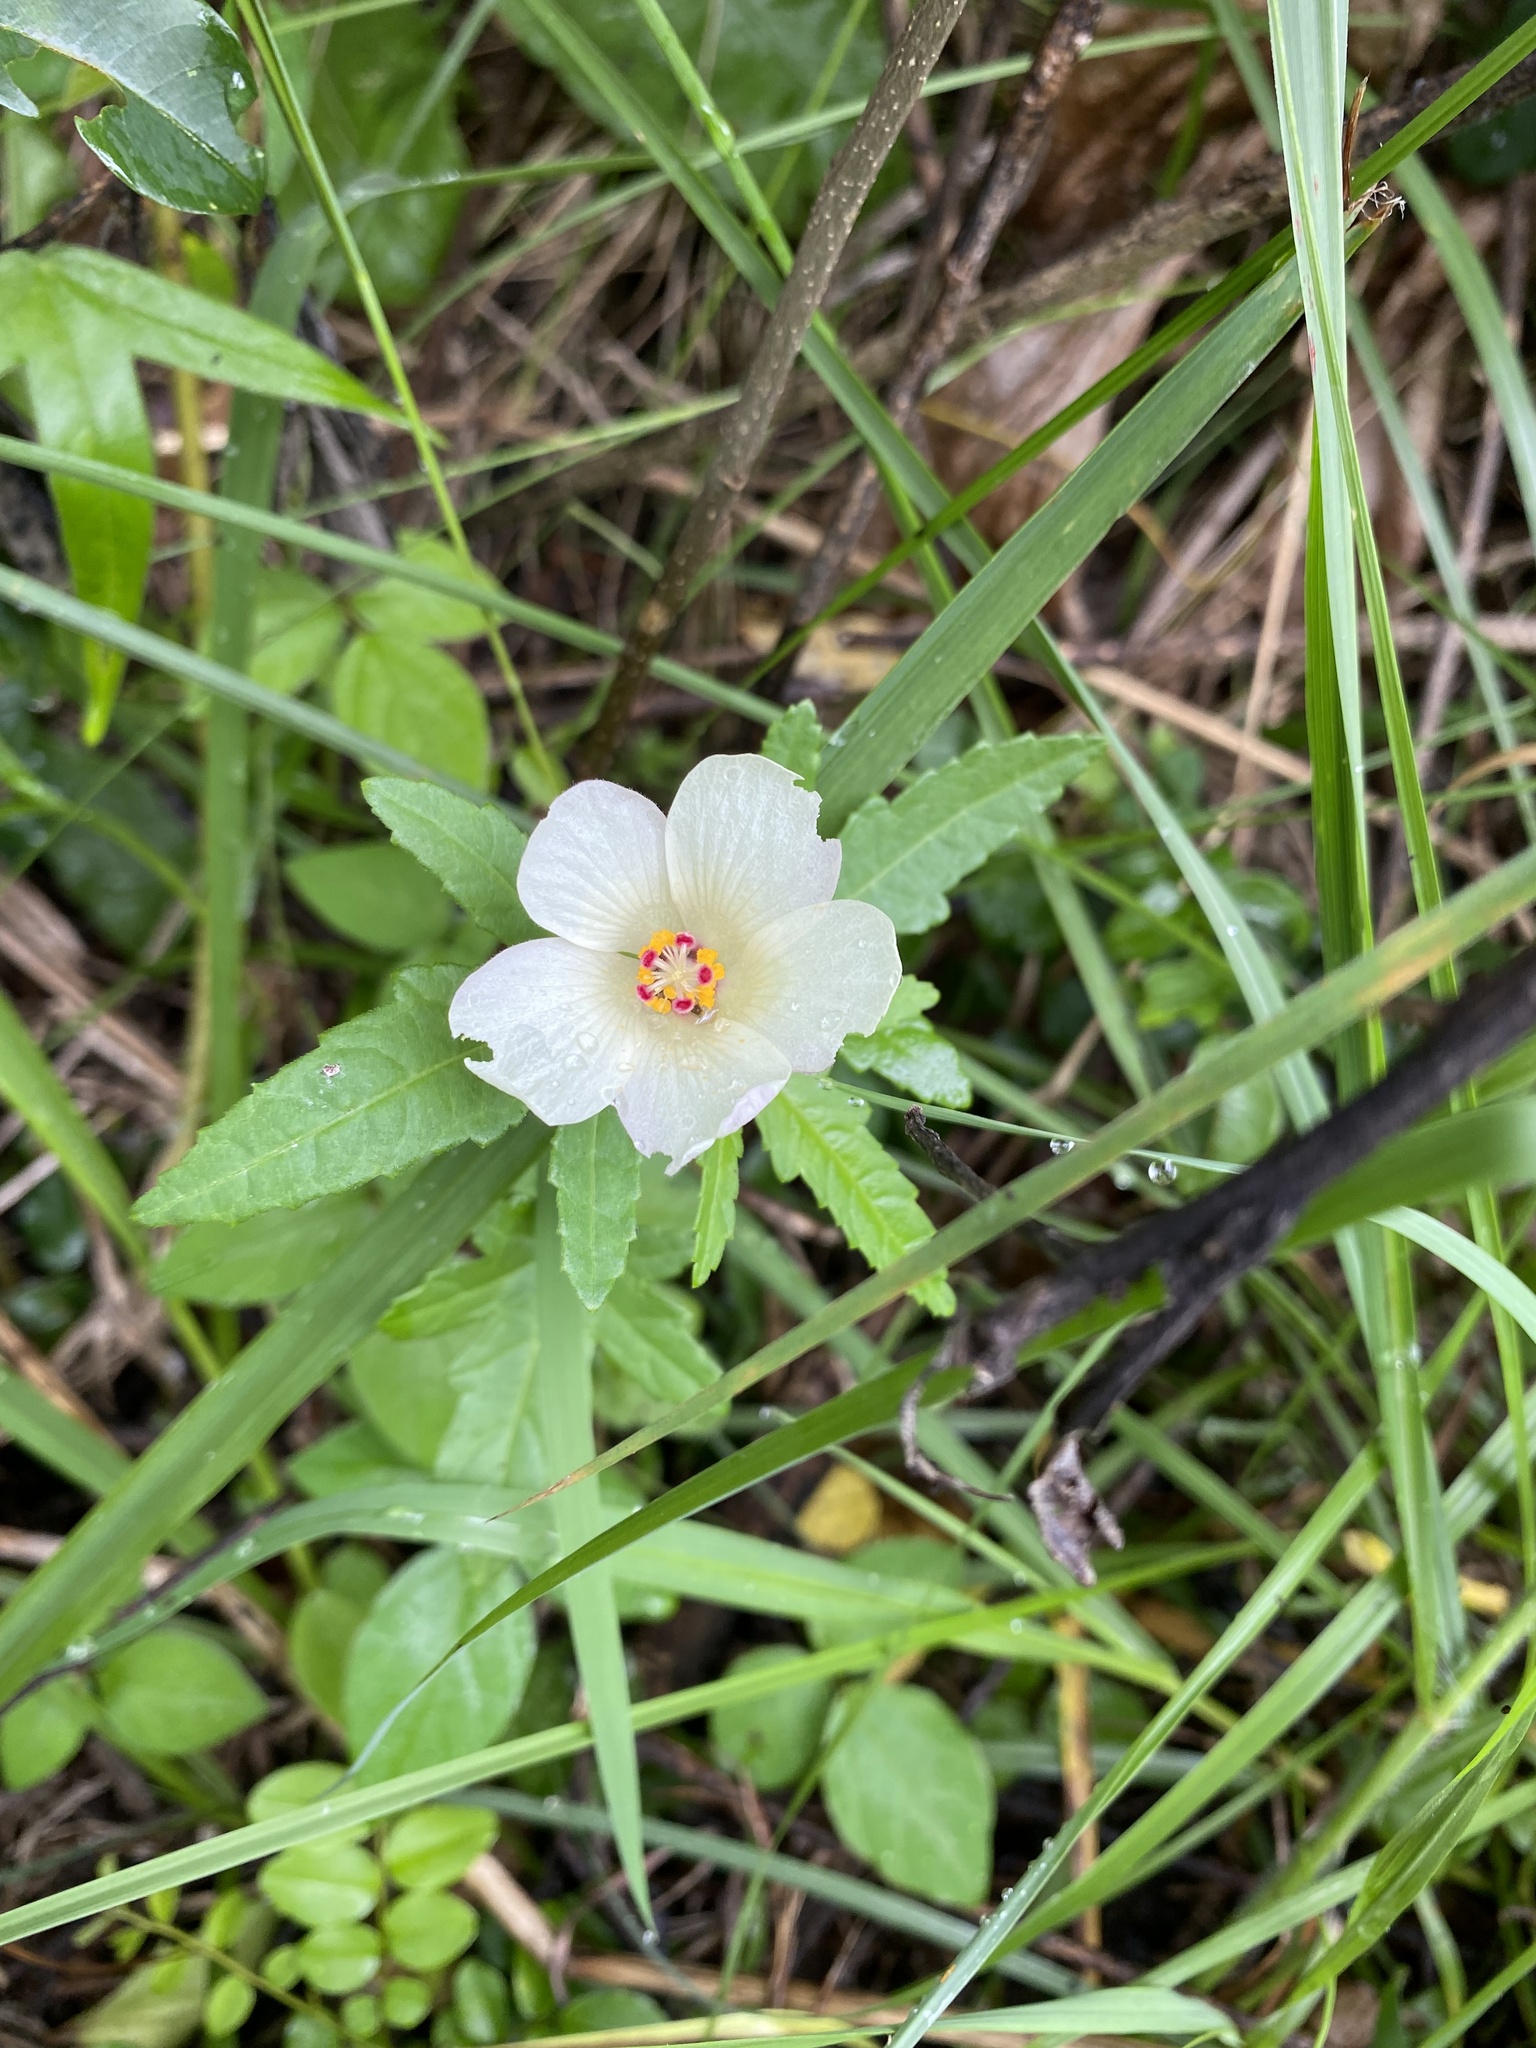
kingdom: Plantae
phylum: Tracheophyta
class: Magnoliopsida
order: Malvales
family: Malvaceae
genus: Hibiscus
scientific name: Hibiscus trionum
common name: Bladder ketmia
